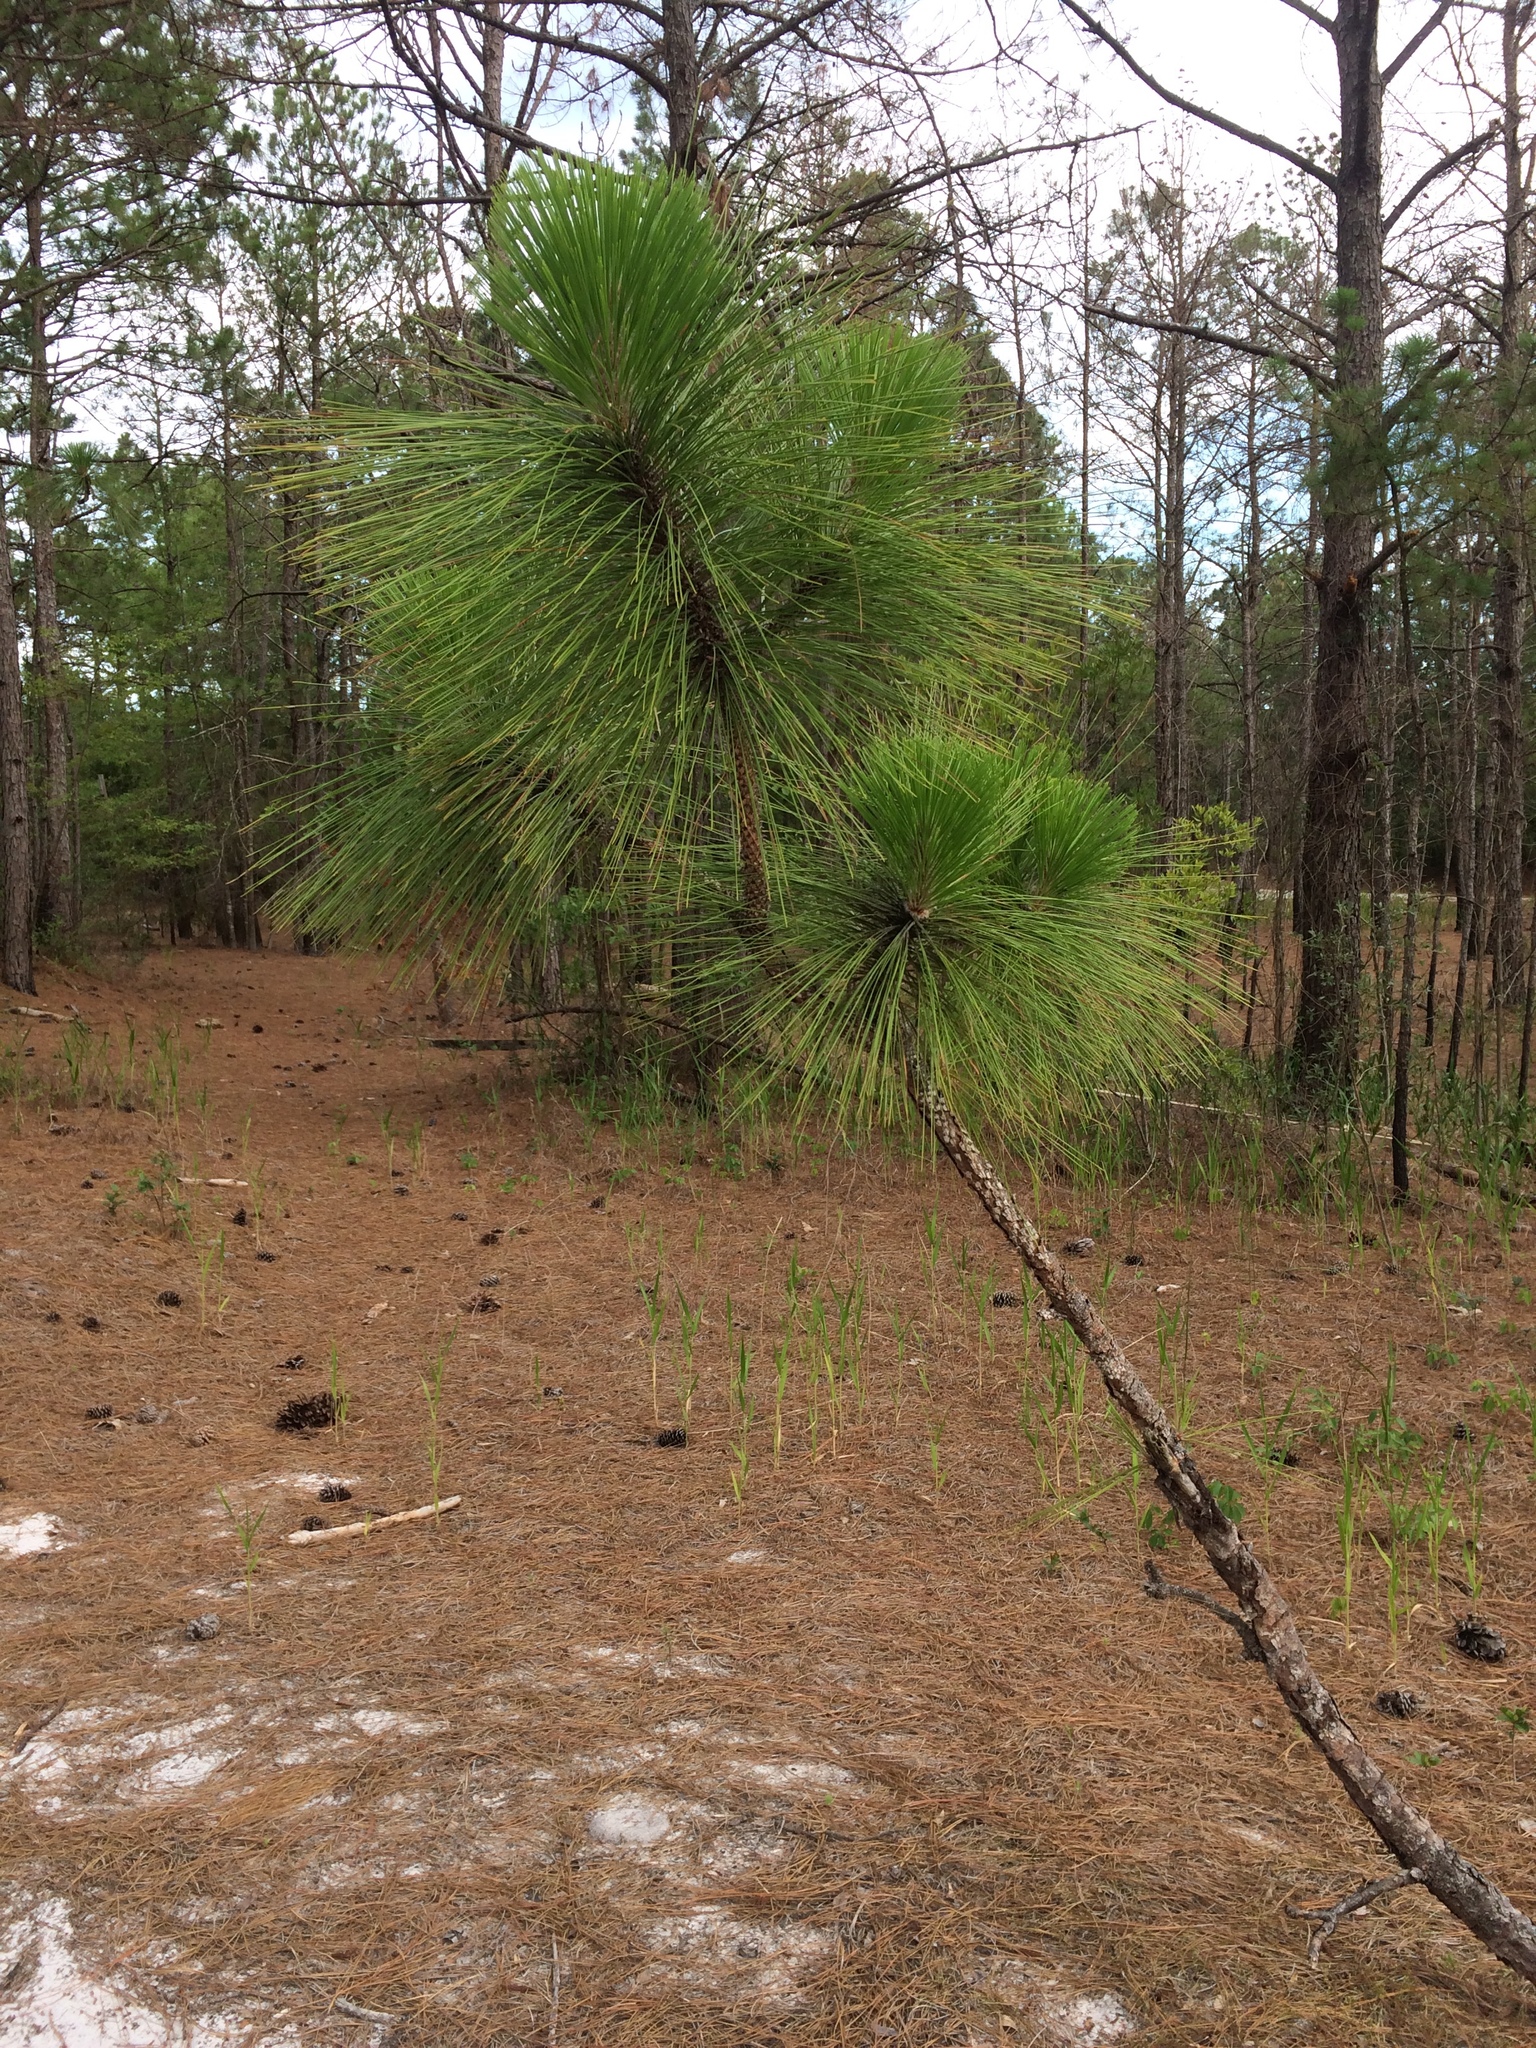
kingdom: Plantae
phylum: Tracheophyta
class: Pinopsida
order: Pinales
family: Pinaceae
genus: Pinus
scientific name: Pinus palustris
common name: Longleaf pine
